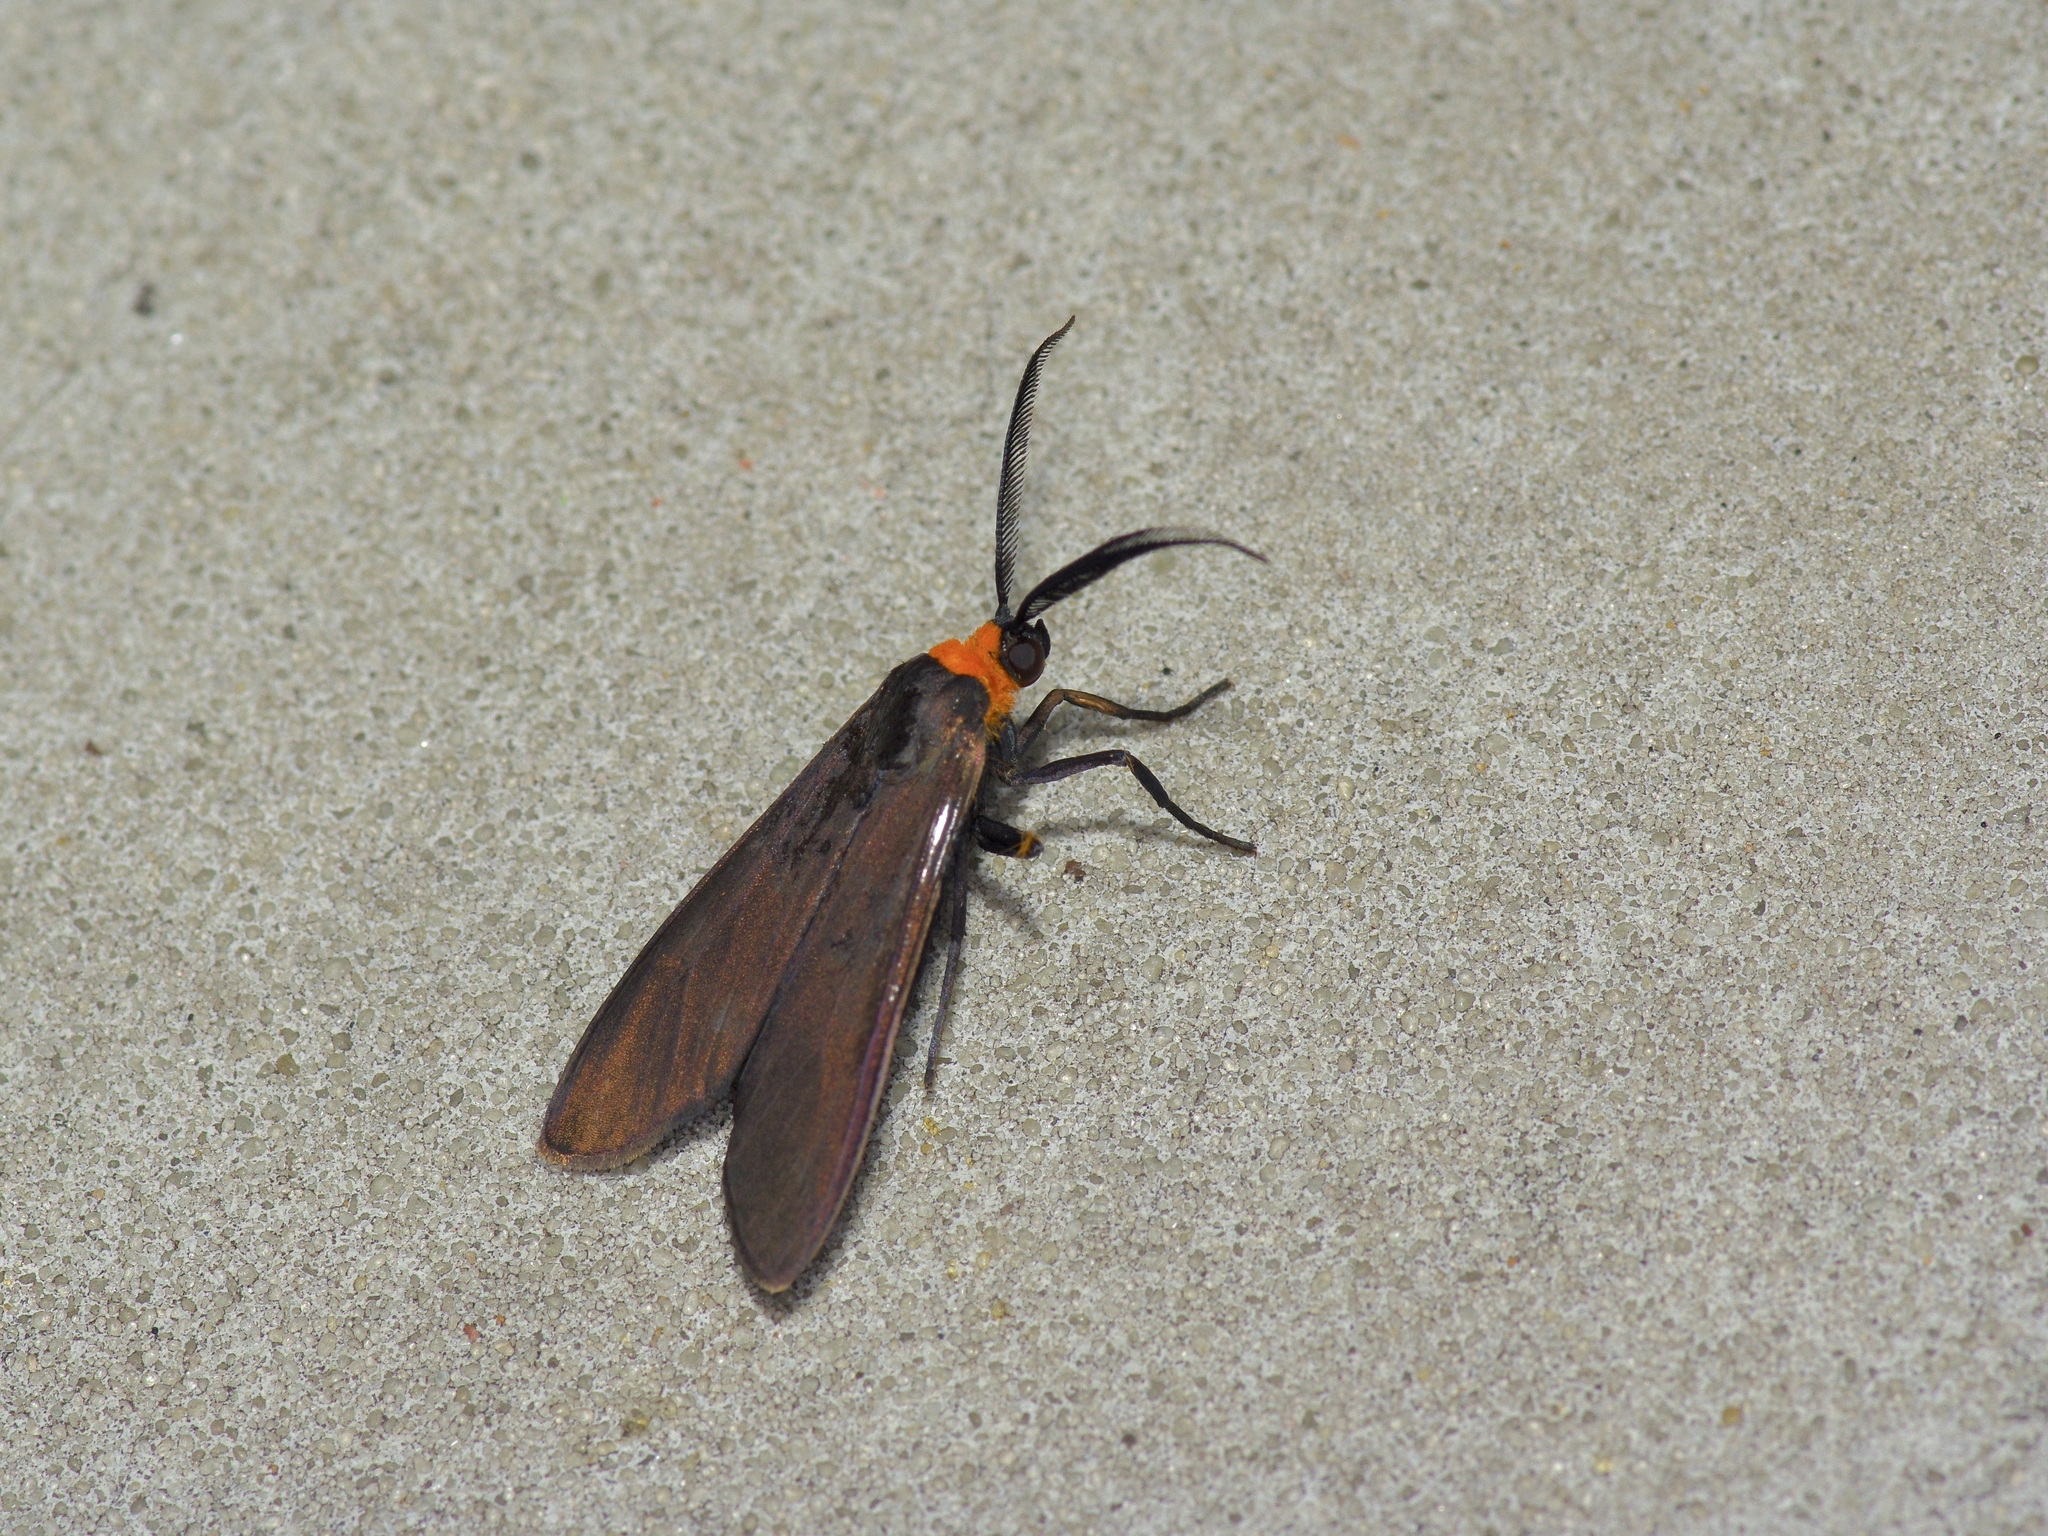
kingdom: Animalia
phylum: Arthropoda
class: Insecta
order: Lepidoptera
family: Erebidae
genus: Cisseps
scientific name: Cisseps fulvicollis
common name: Yellow-collared scape moth
